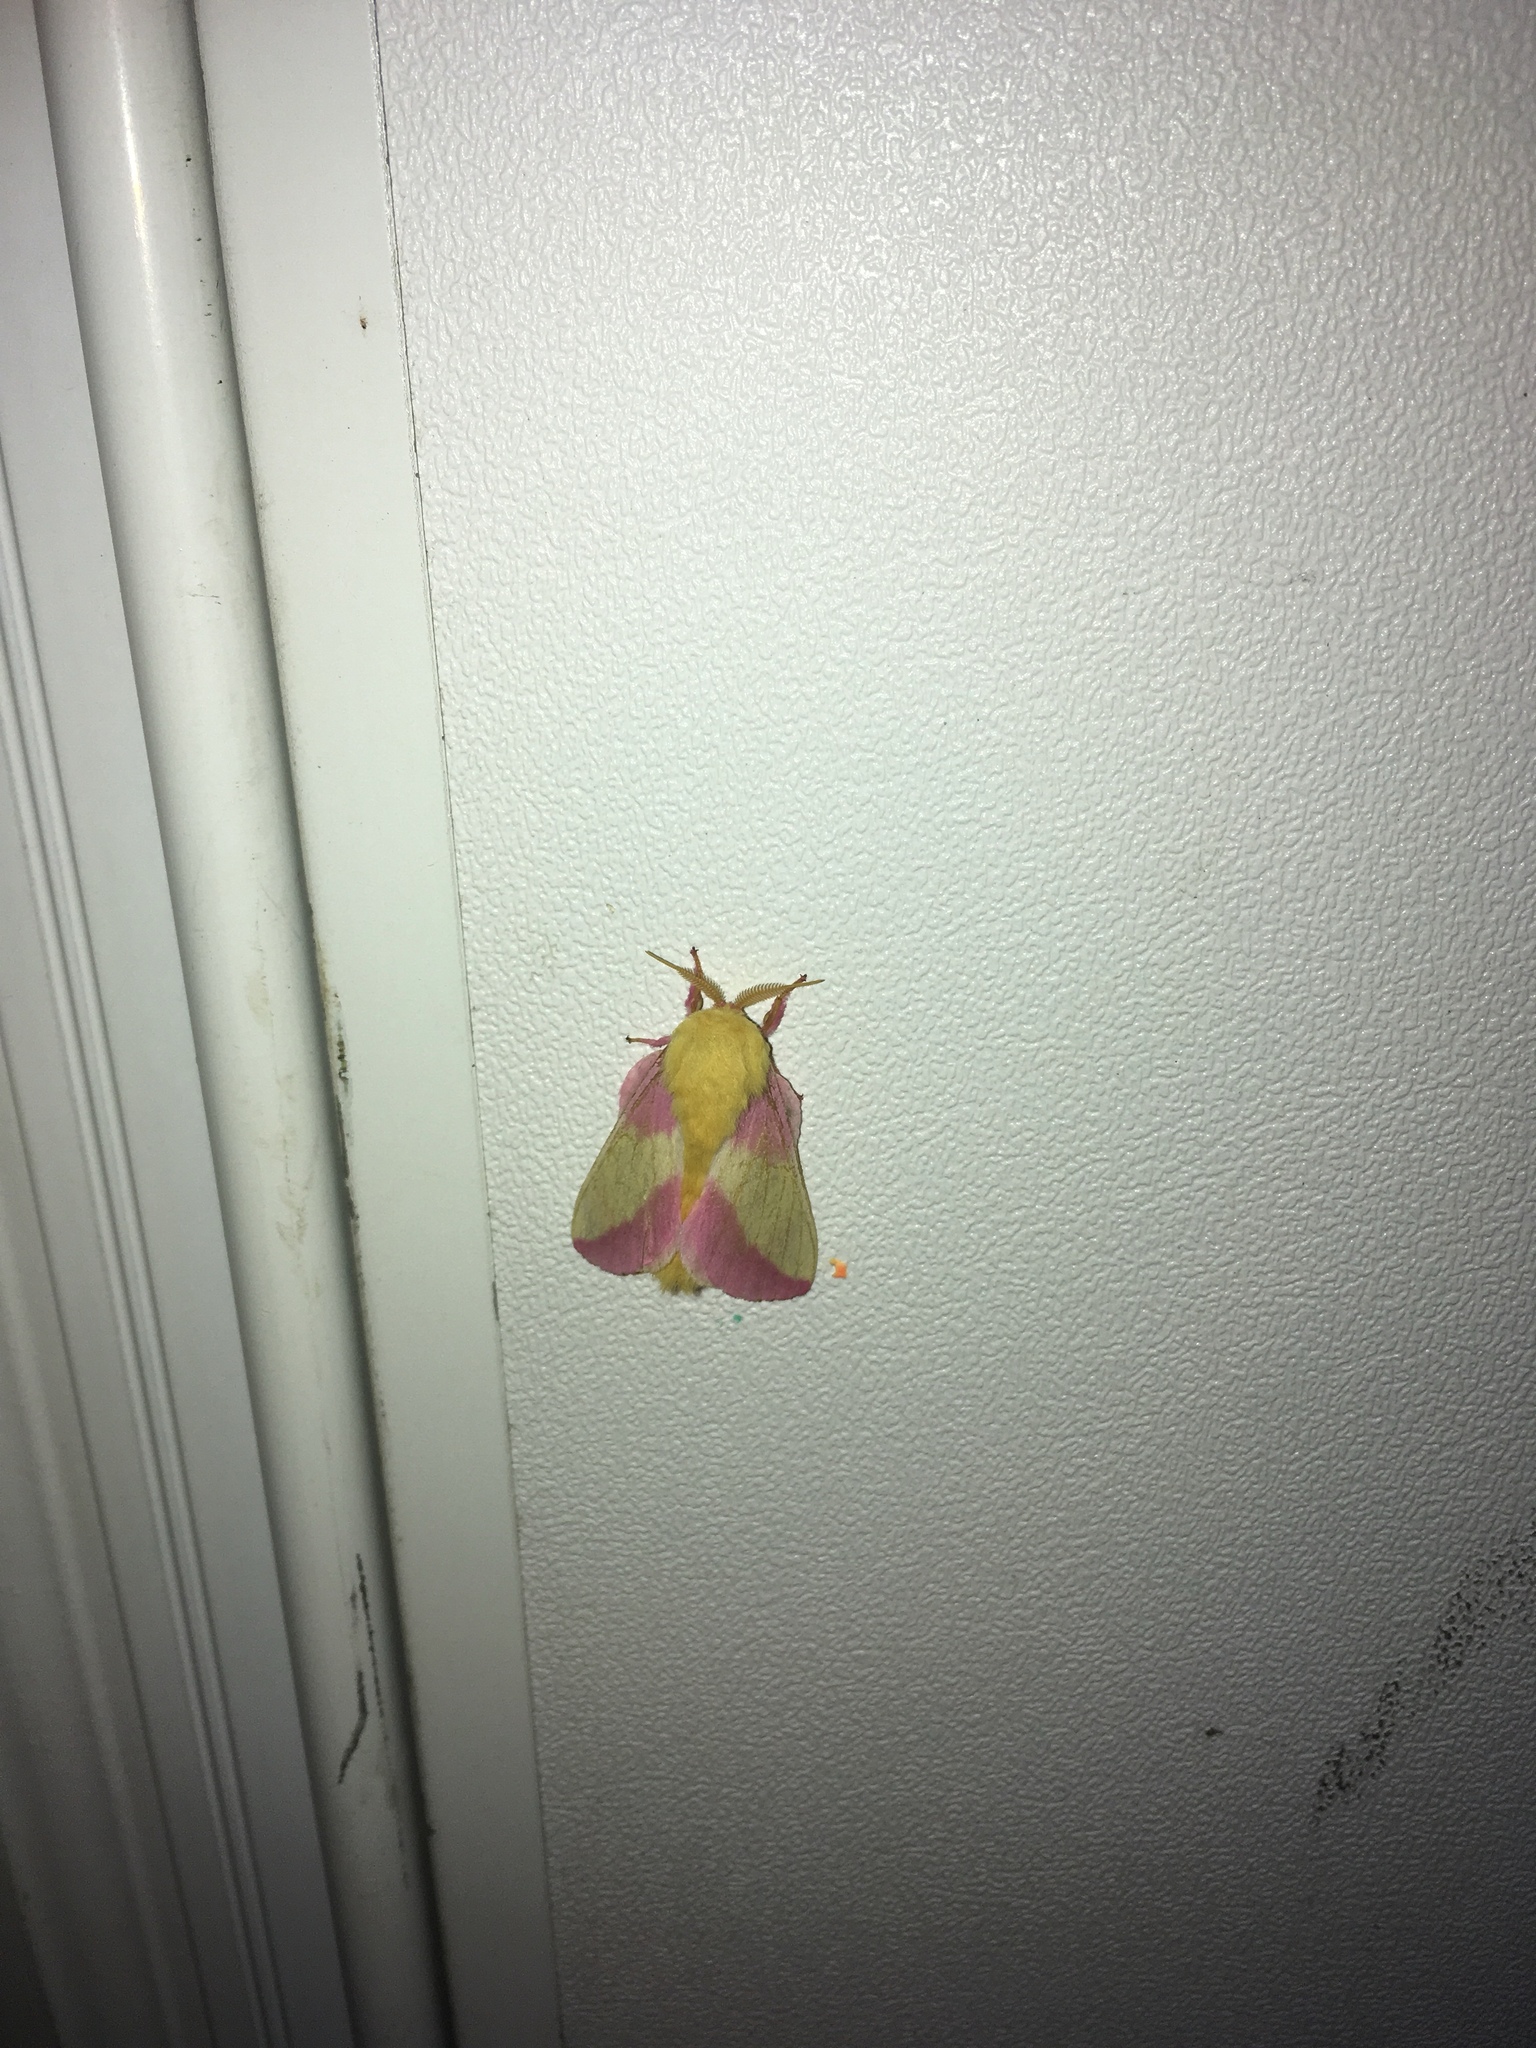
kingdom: Animalia
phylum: Arthropoda
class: Insecta
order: Lepidoptera
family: Saturniidae
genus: Dryocampa
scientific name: Dryocampa rubicunda
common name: Rosy maple moth
